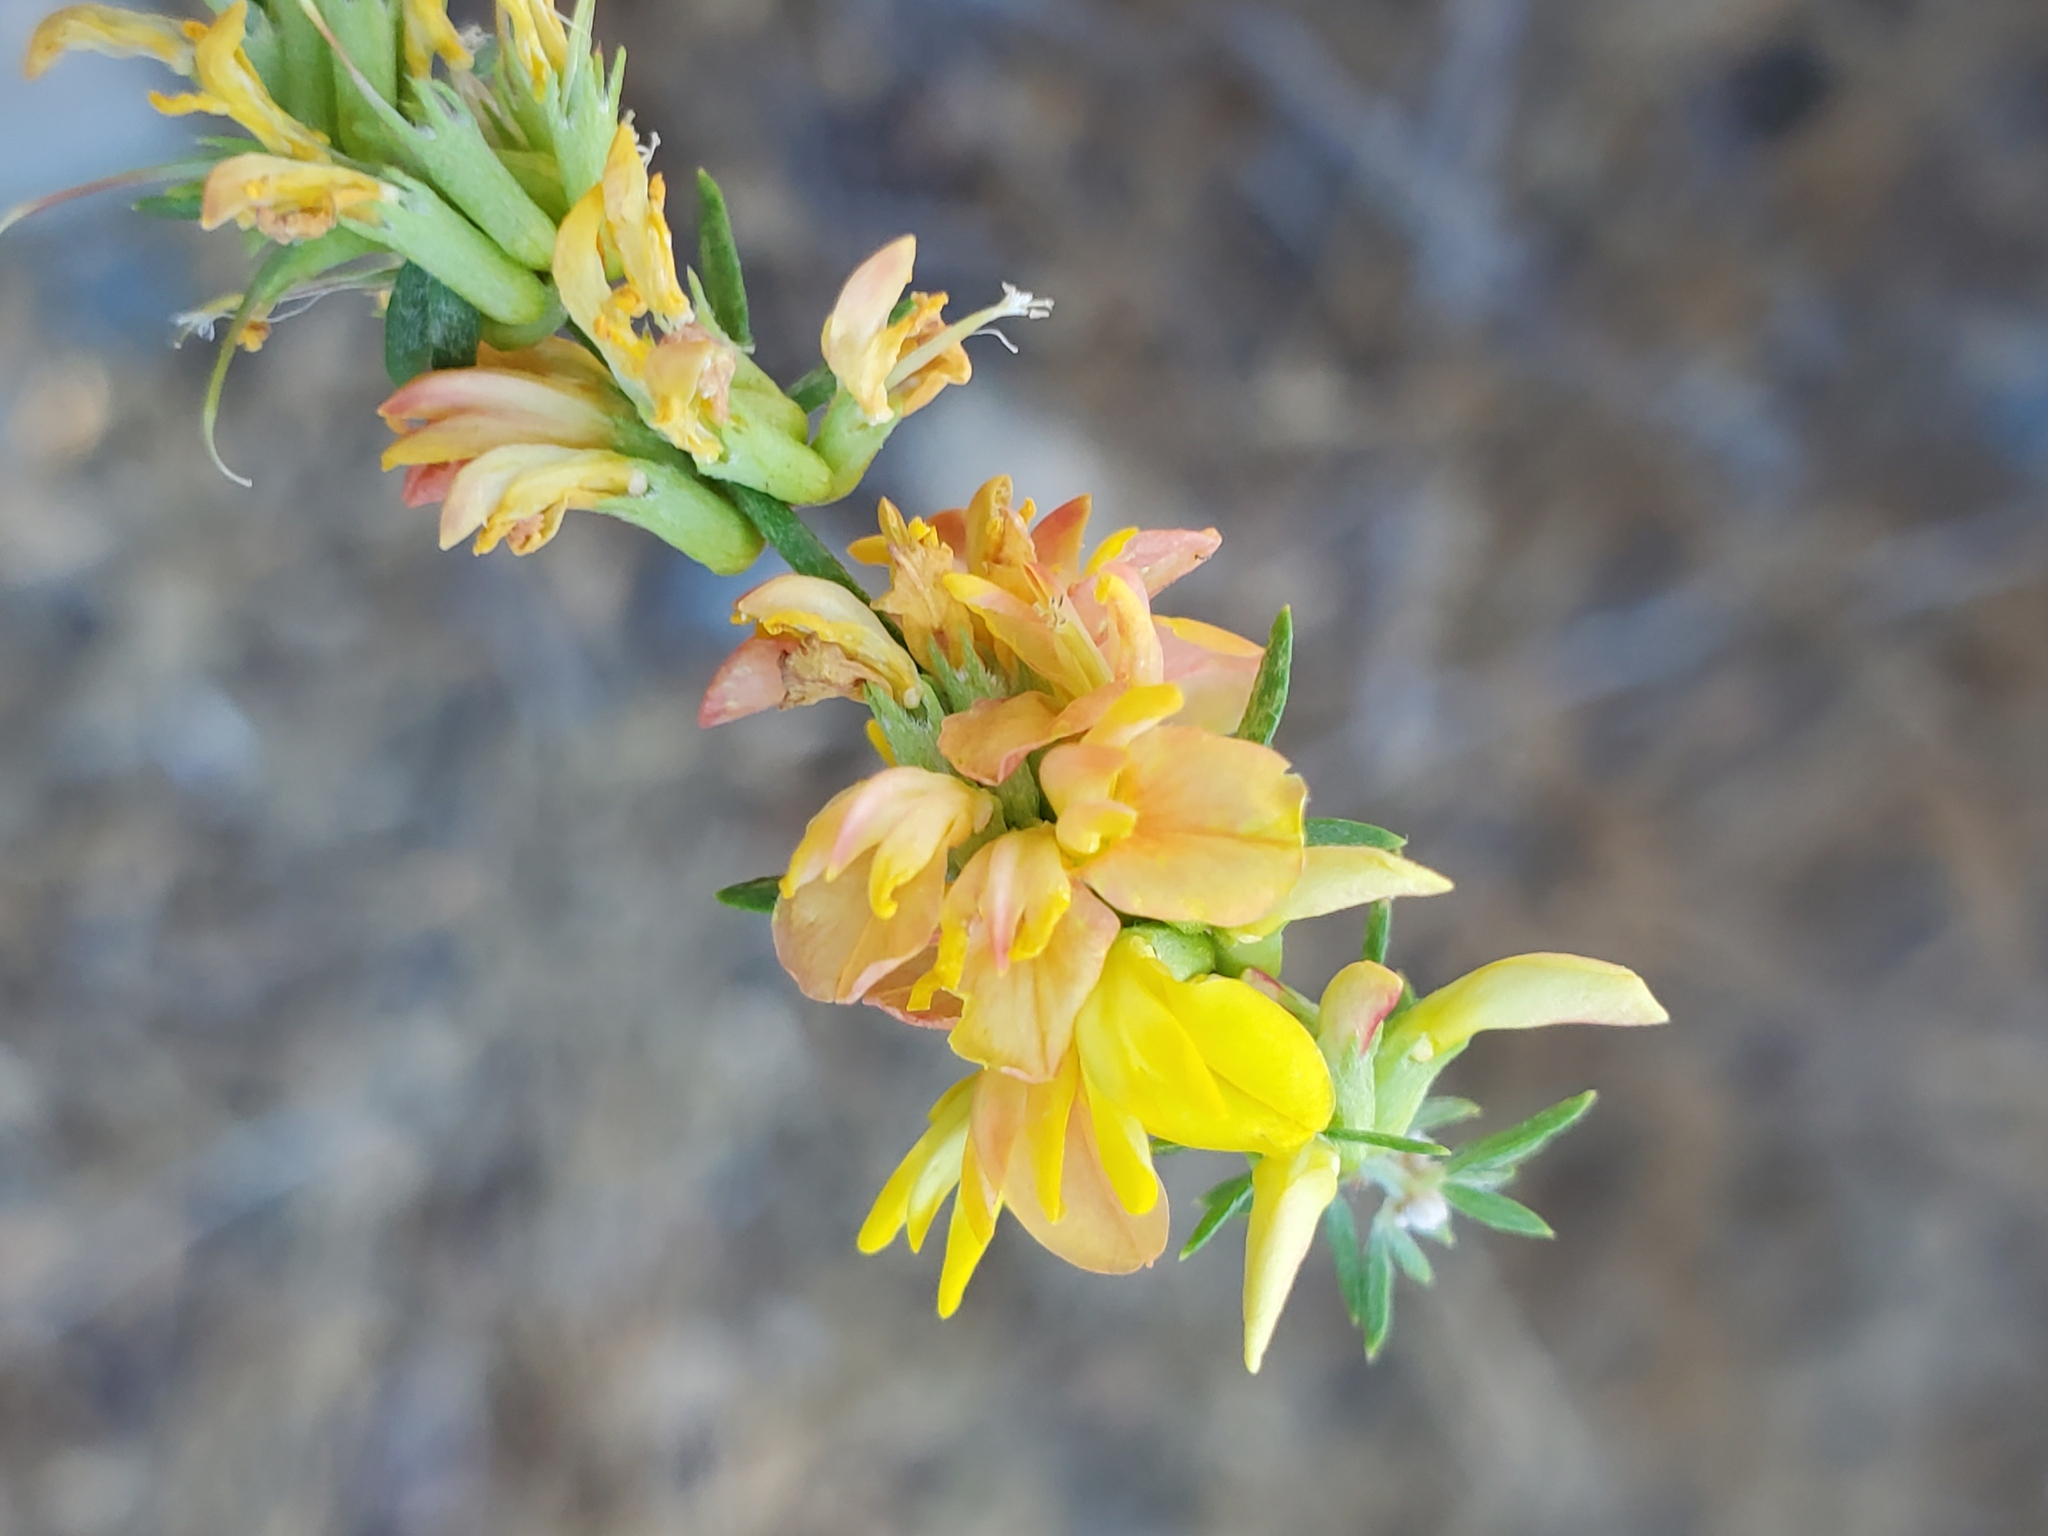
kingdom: Plantae
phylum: Tracheophyta
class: Magnoliopsida
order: Fabales
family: Fabaceae
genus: Acmispon
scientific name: Acmispon glaber
